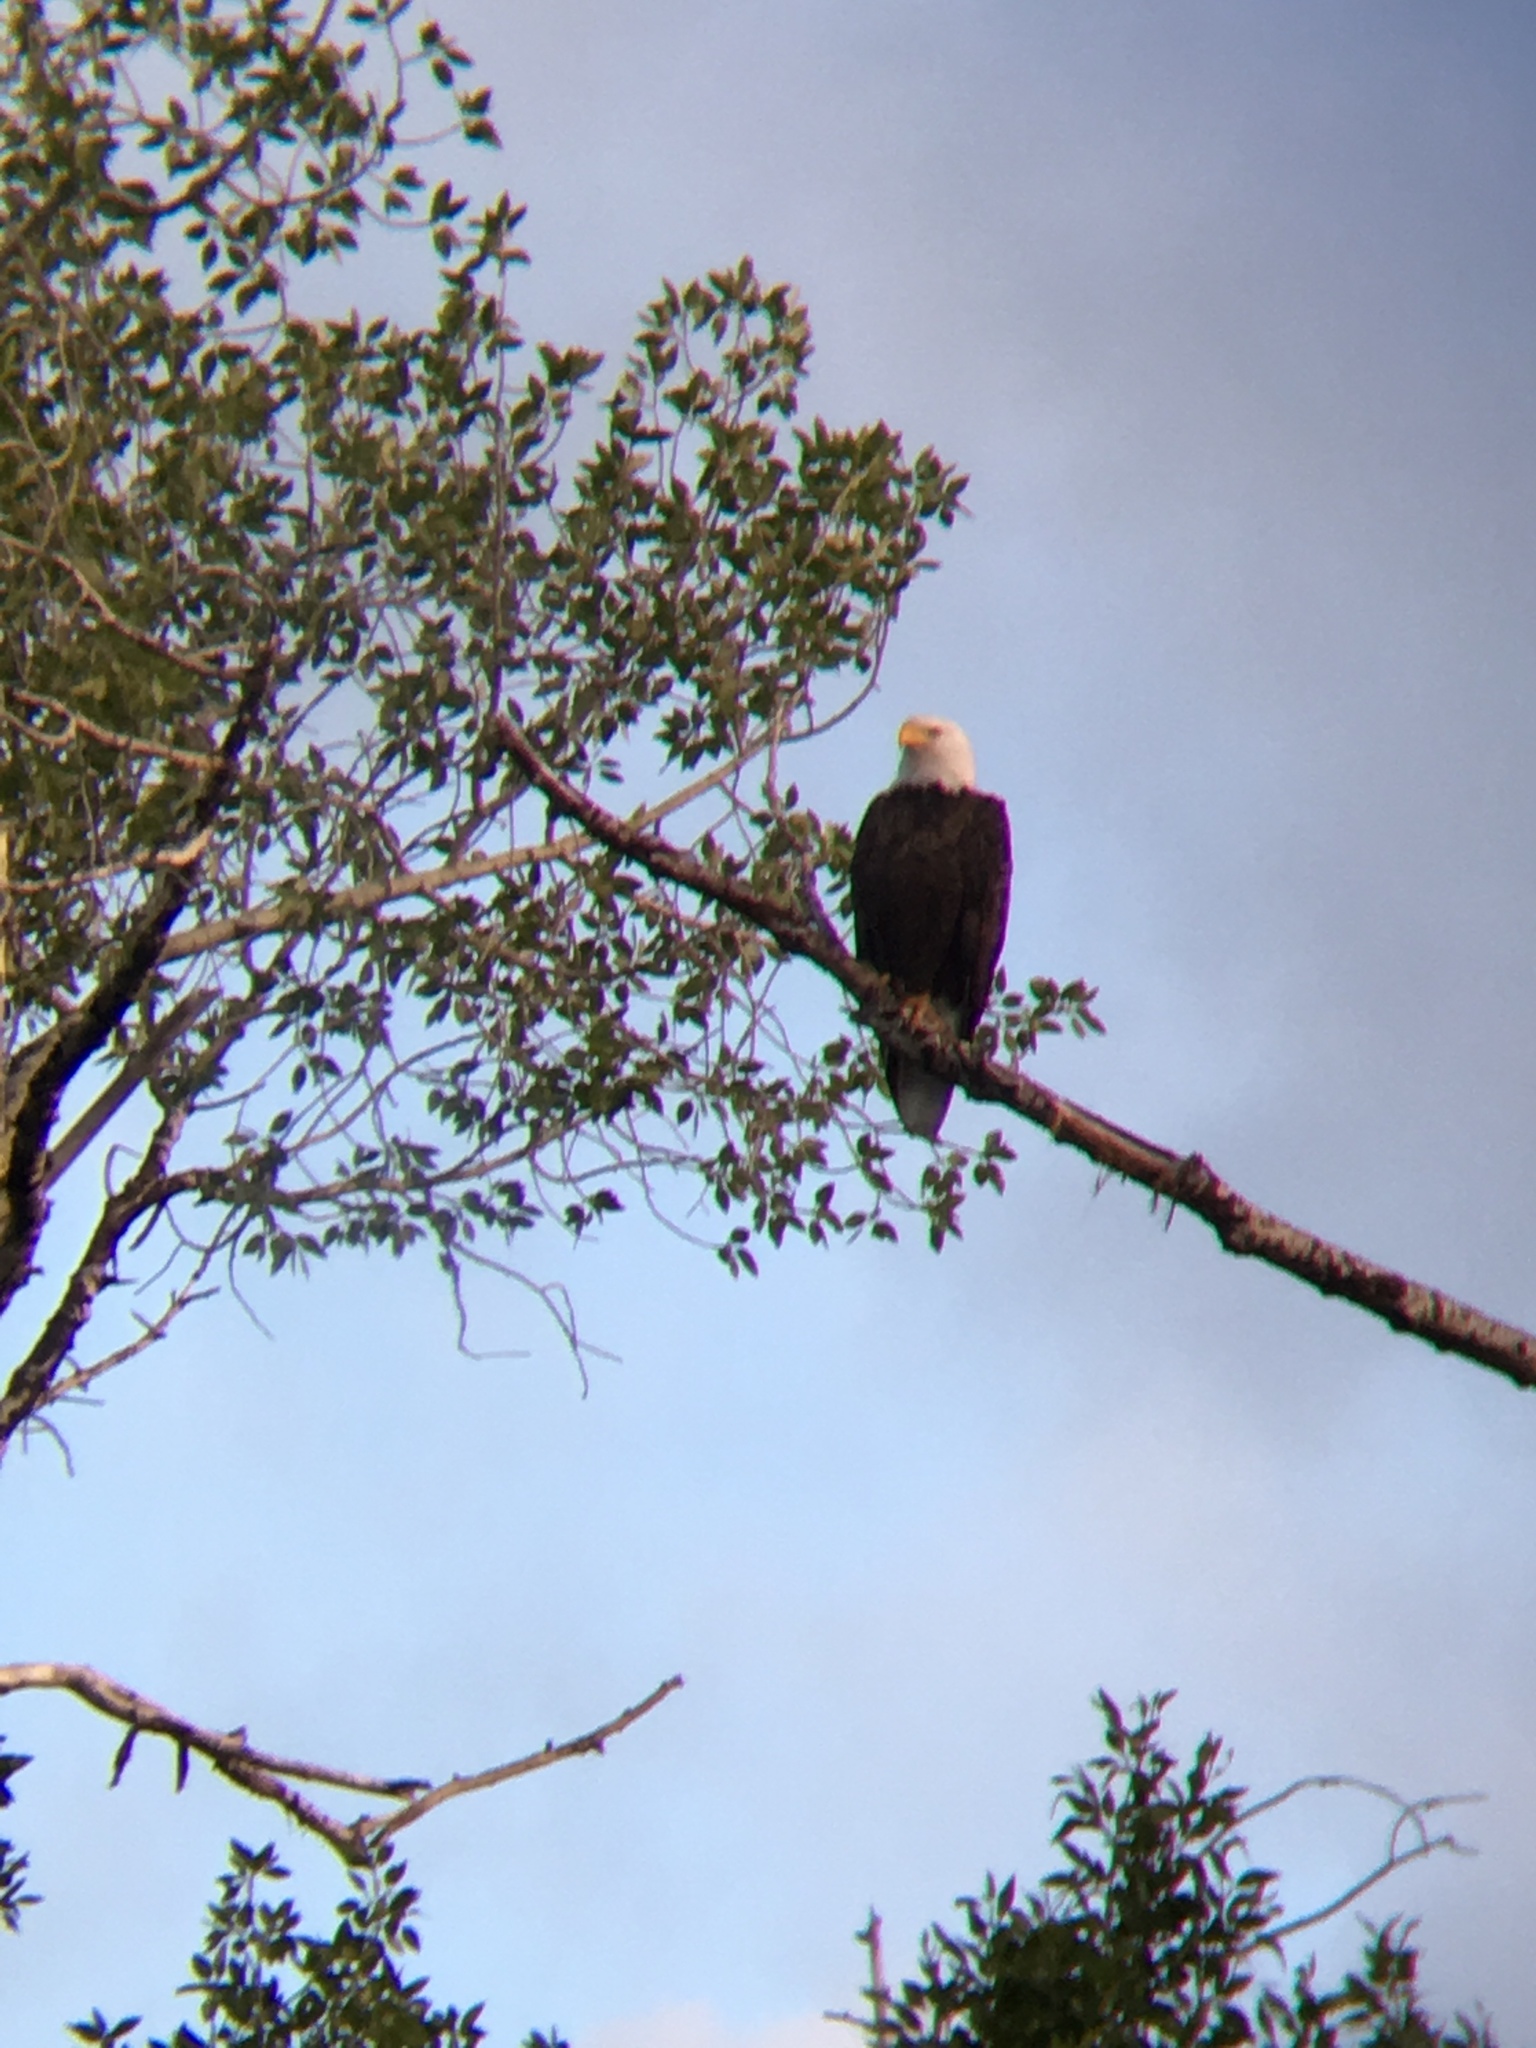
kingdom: Animalia
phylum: Chordata
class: Aves
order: Accipitriformes
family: Accipitridae
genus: Haliaeetus
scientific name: Haliaeetus leucocephalus
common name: Bald eagle
